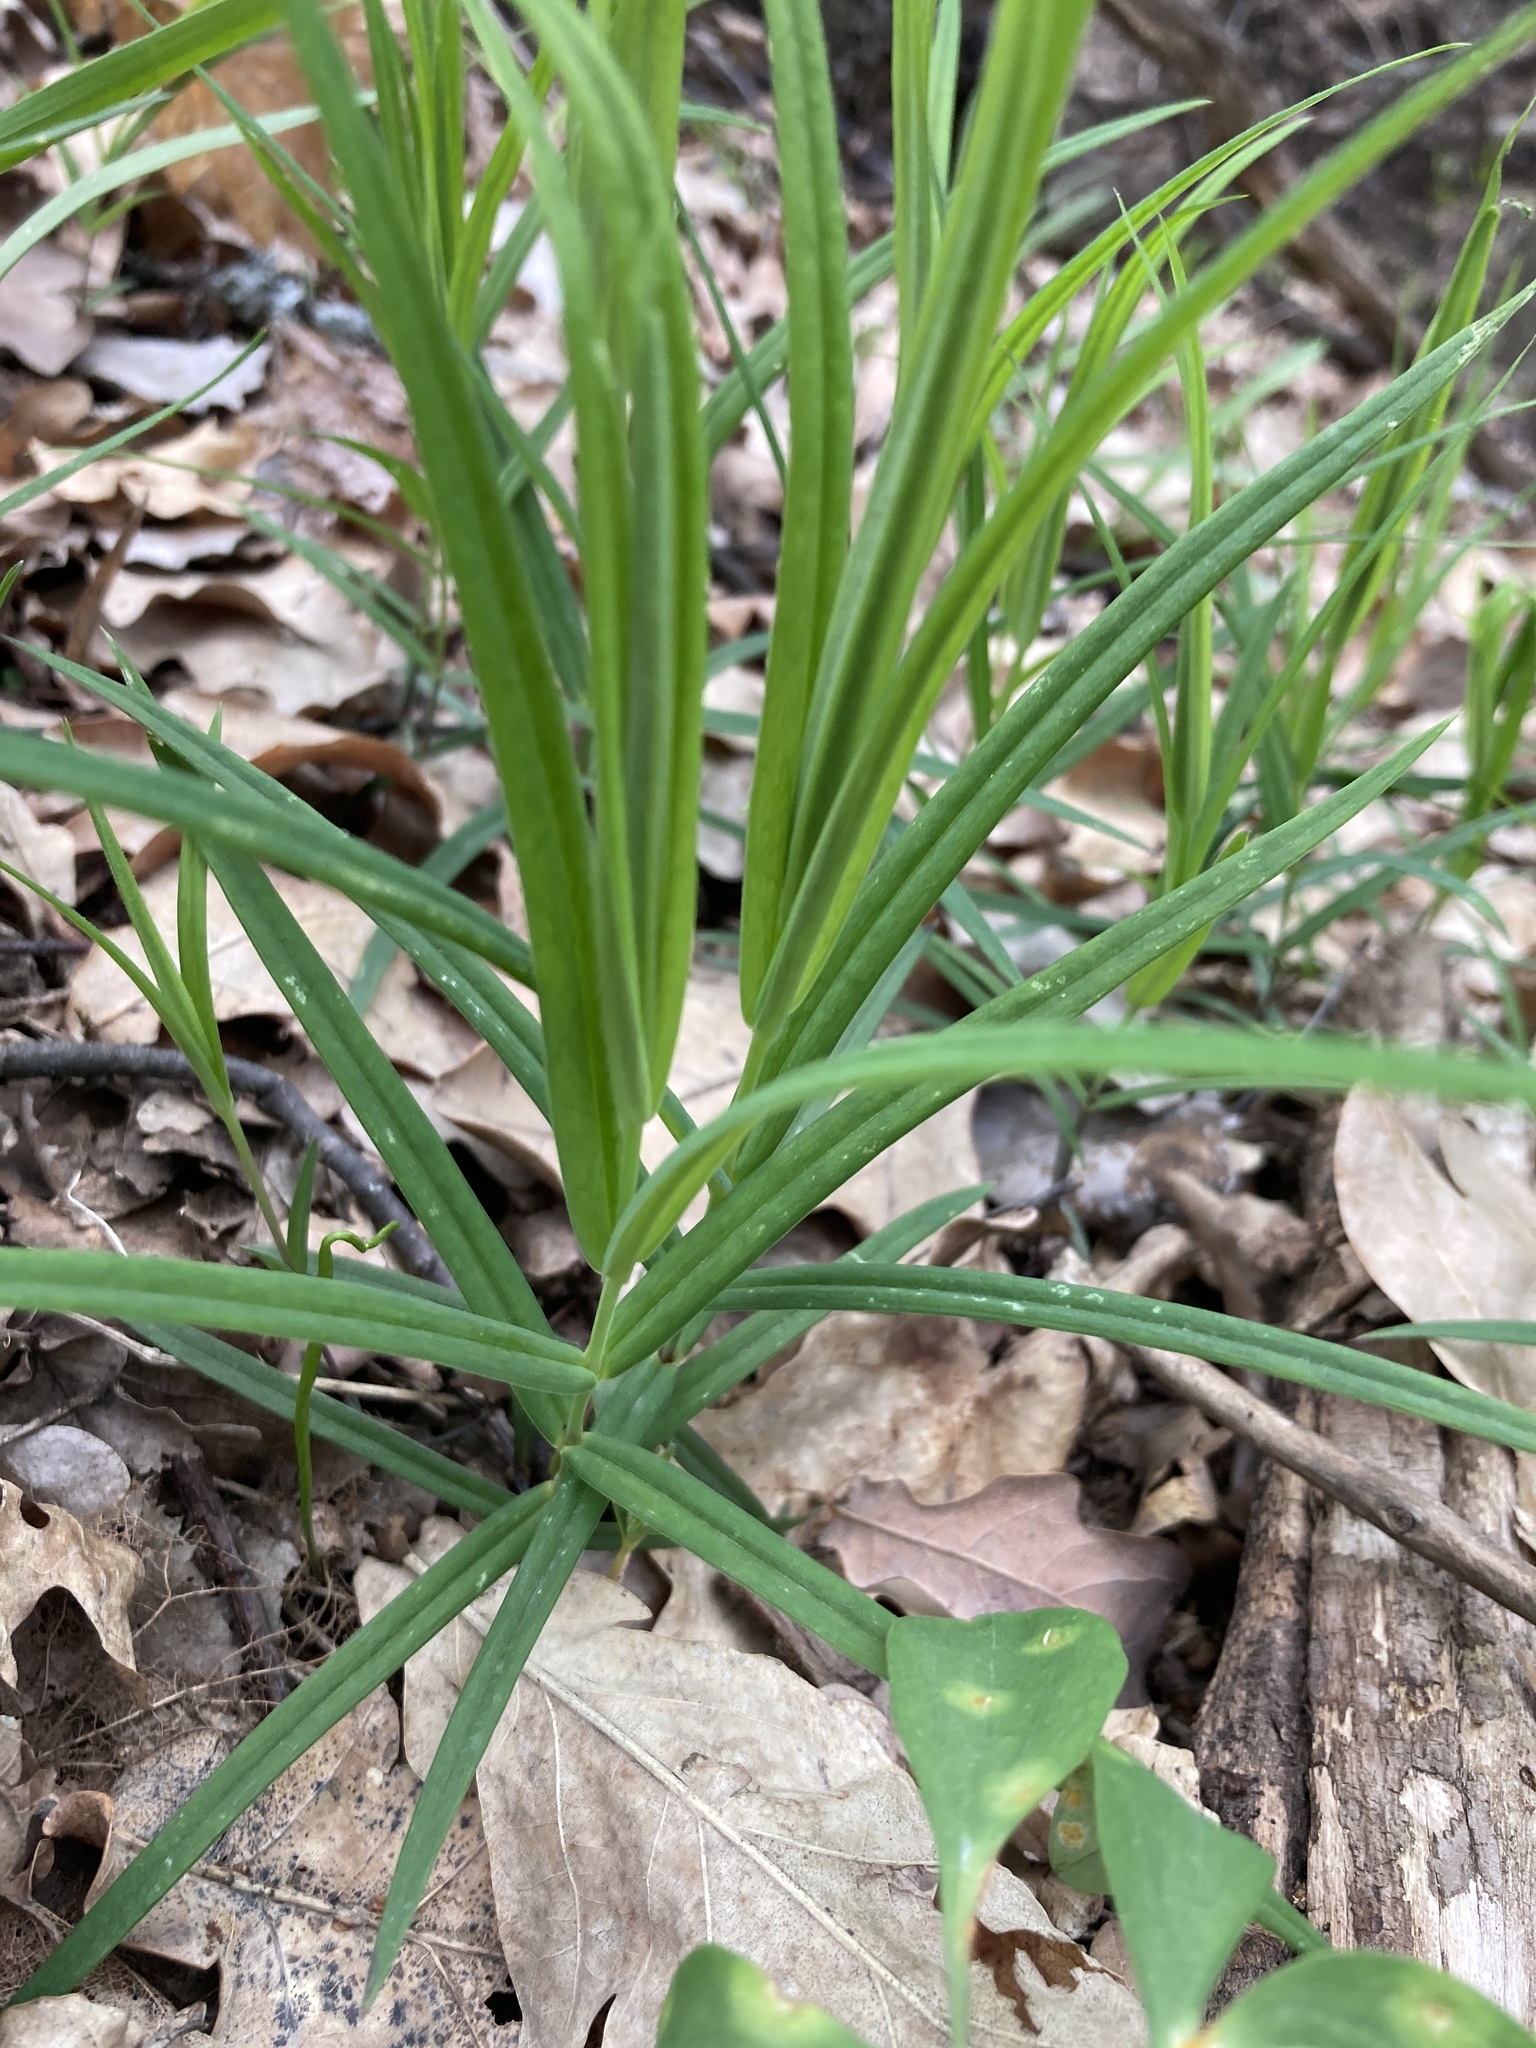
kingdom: Plantae
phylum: Tracheophyta
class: Magnoliopsida
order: Caryophyllales
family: Caryophyllaceae
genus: Rabelera
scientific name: Rabelera holostea
